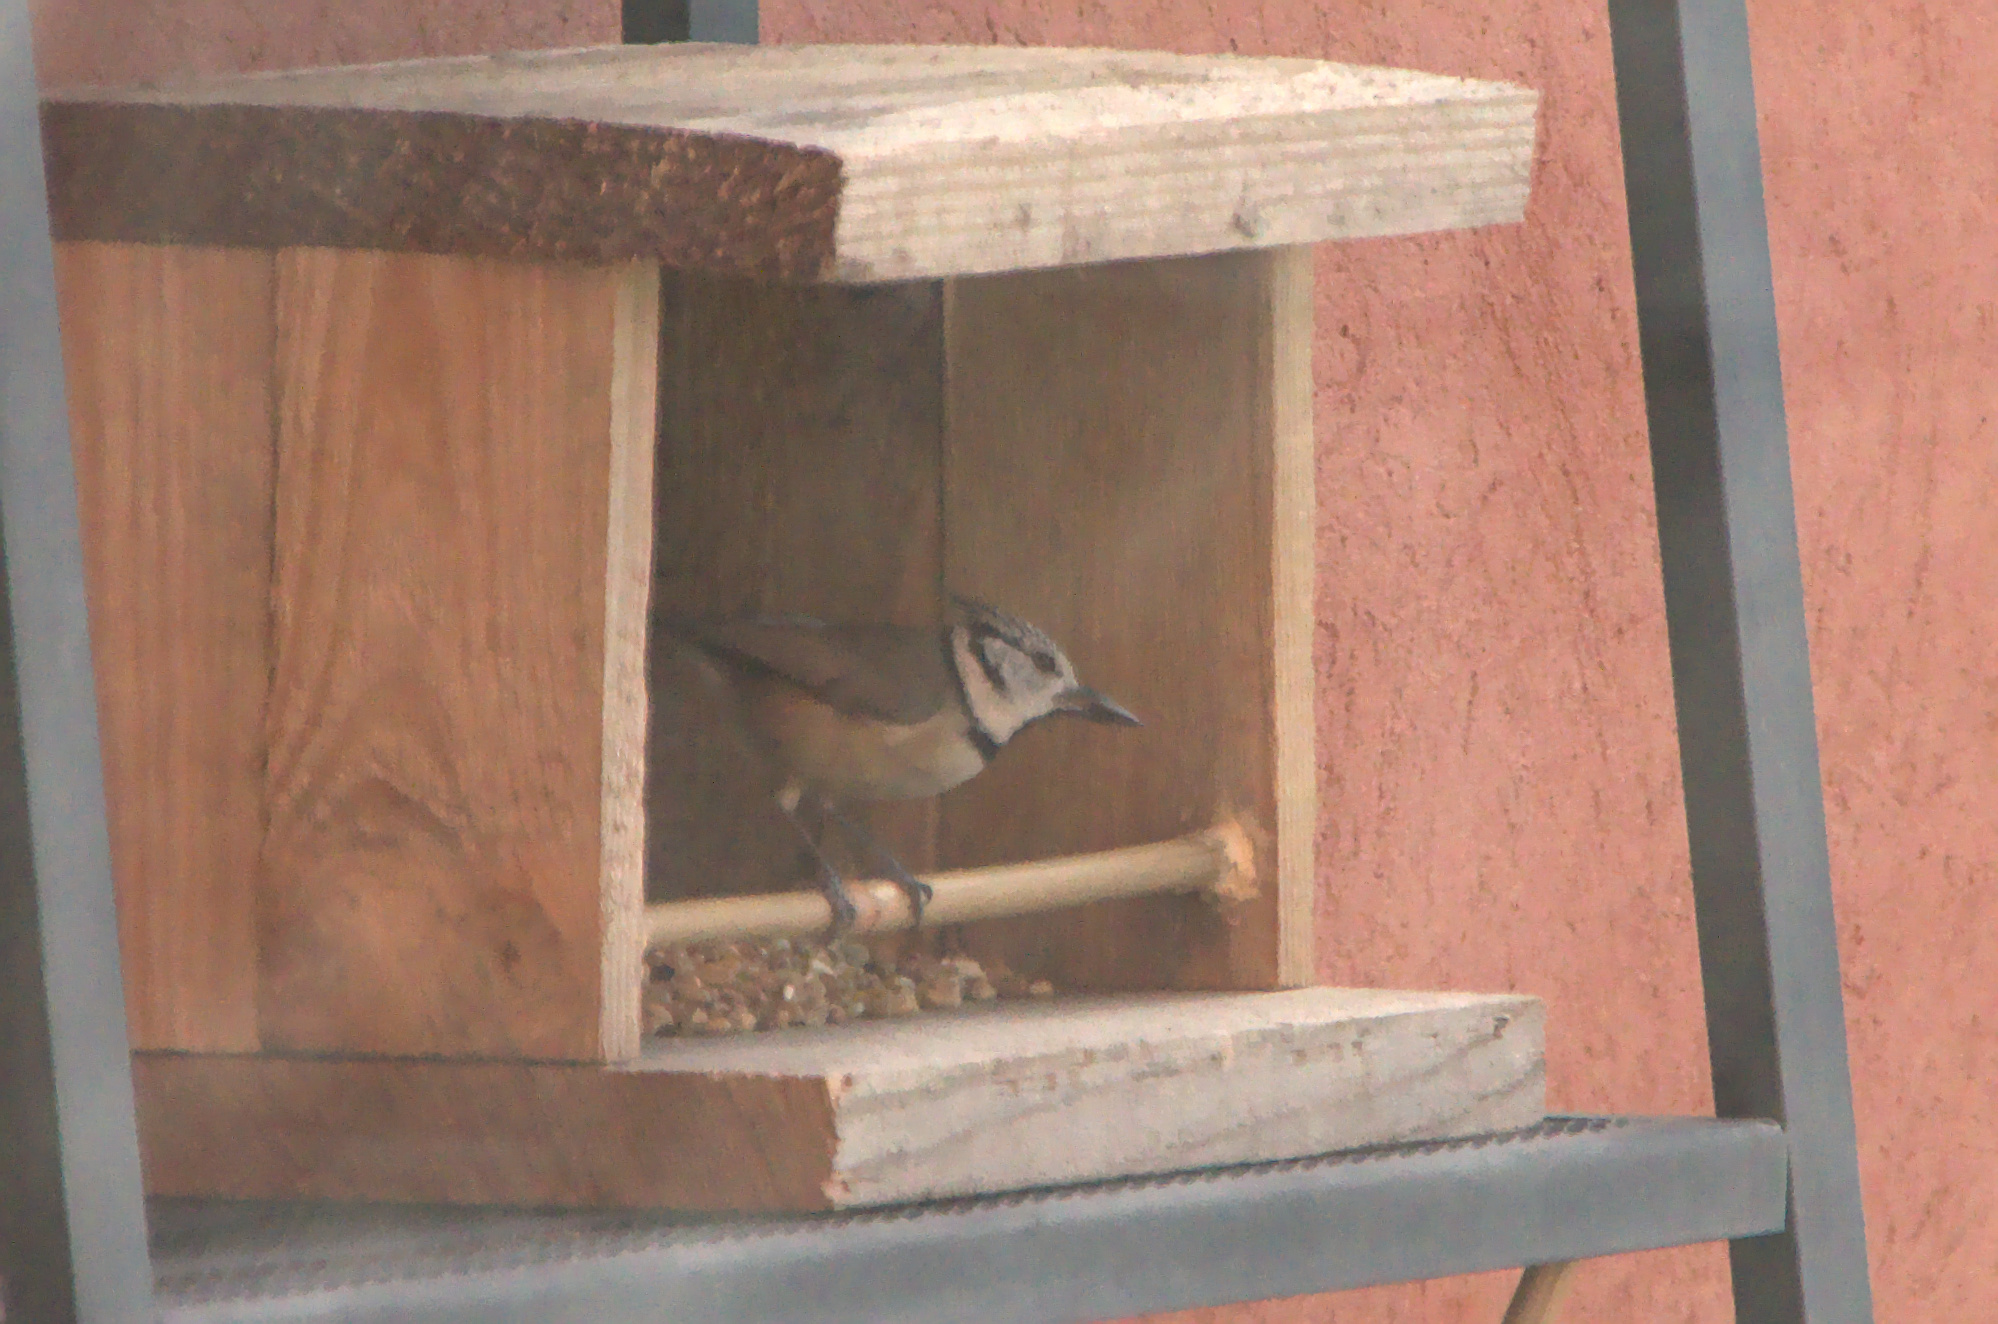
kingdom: Animalia
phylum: Chordata
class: Aves
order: Passeriformes
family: Paridae
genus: Lophophanes
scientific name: Lophophanes cristatus
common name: European crested tit
